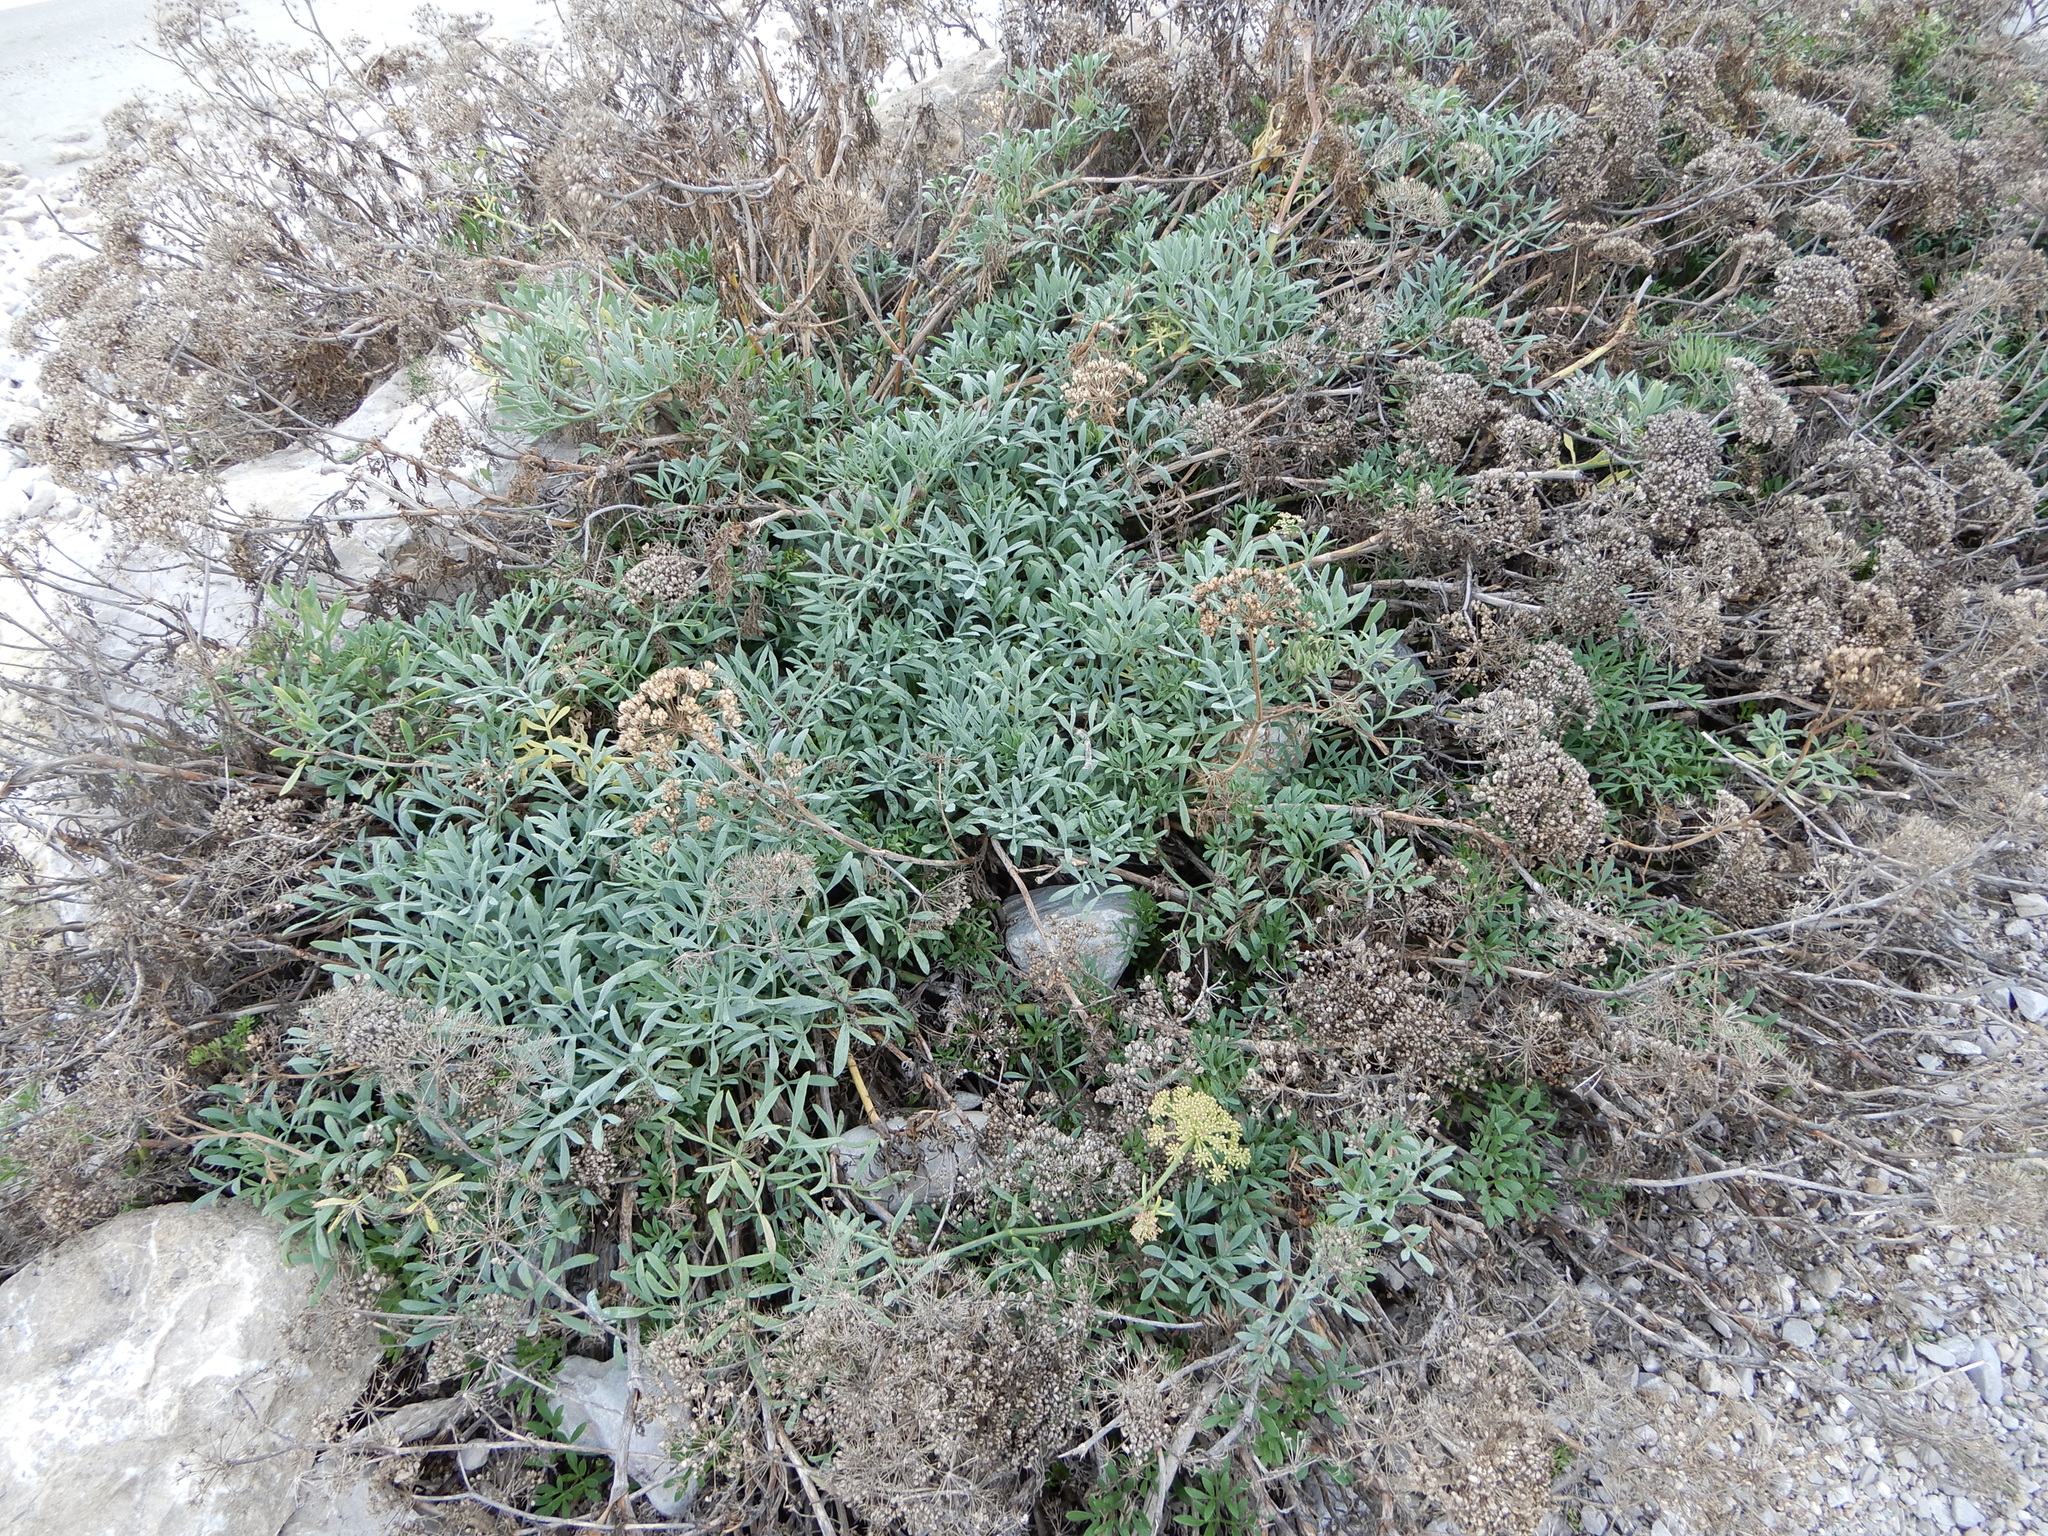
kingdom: Plantae
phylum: Tracheophyta
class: Magnoliopsida
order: Apiales
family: Apiaceae
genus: Crithmum
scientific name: Crithmum maritimum
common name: Rock samphire
